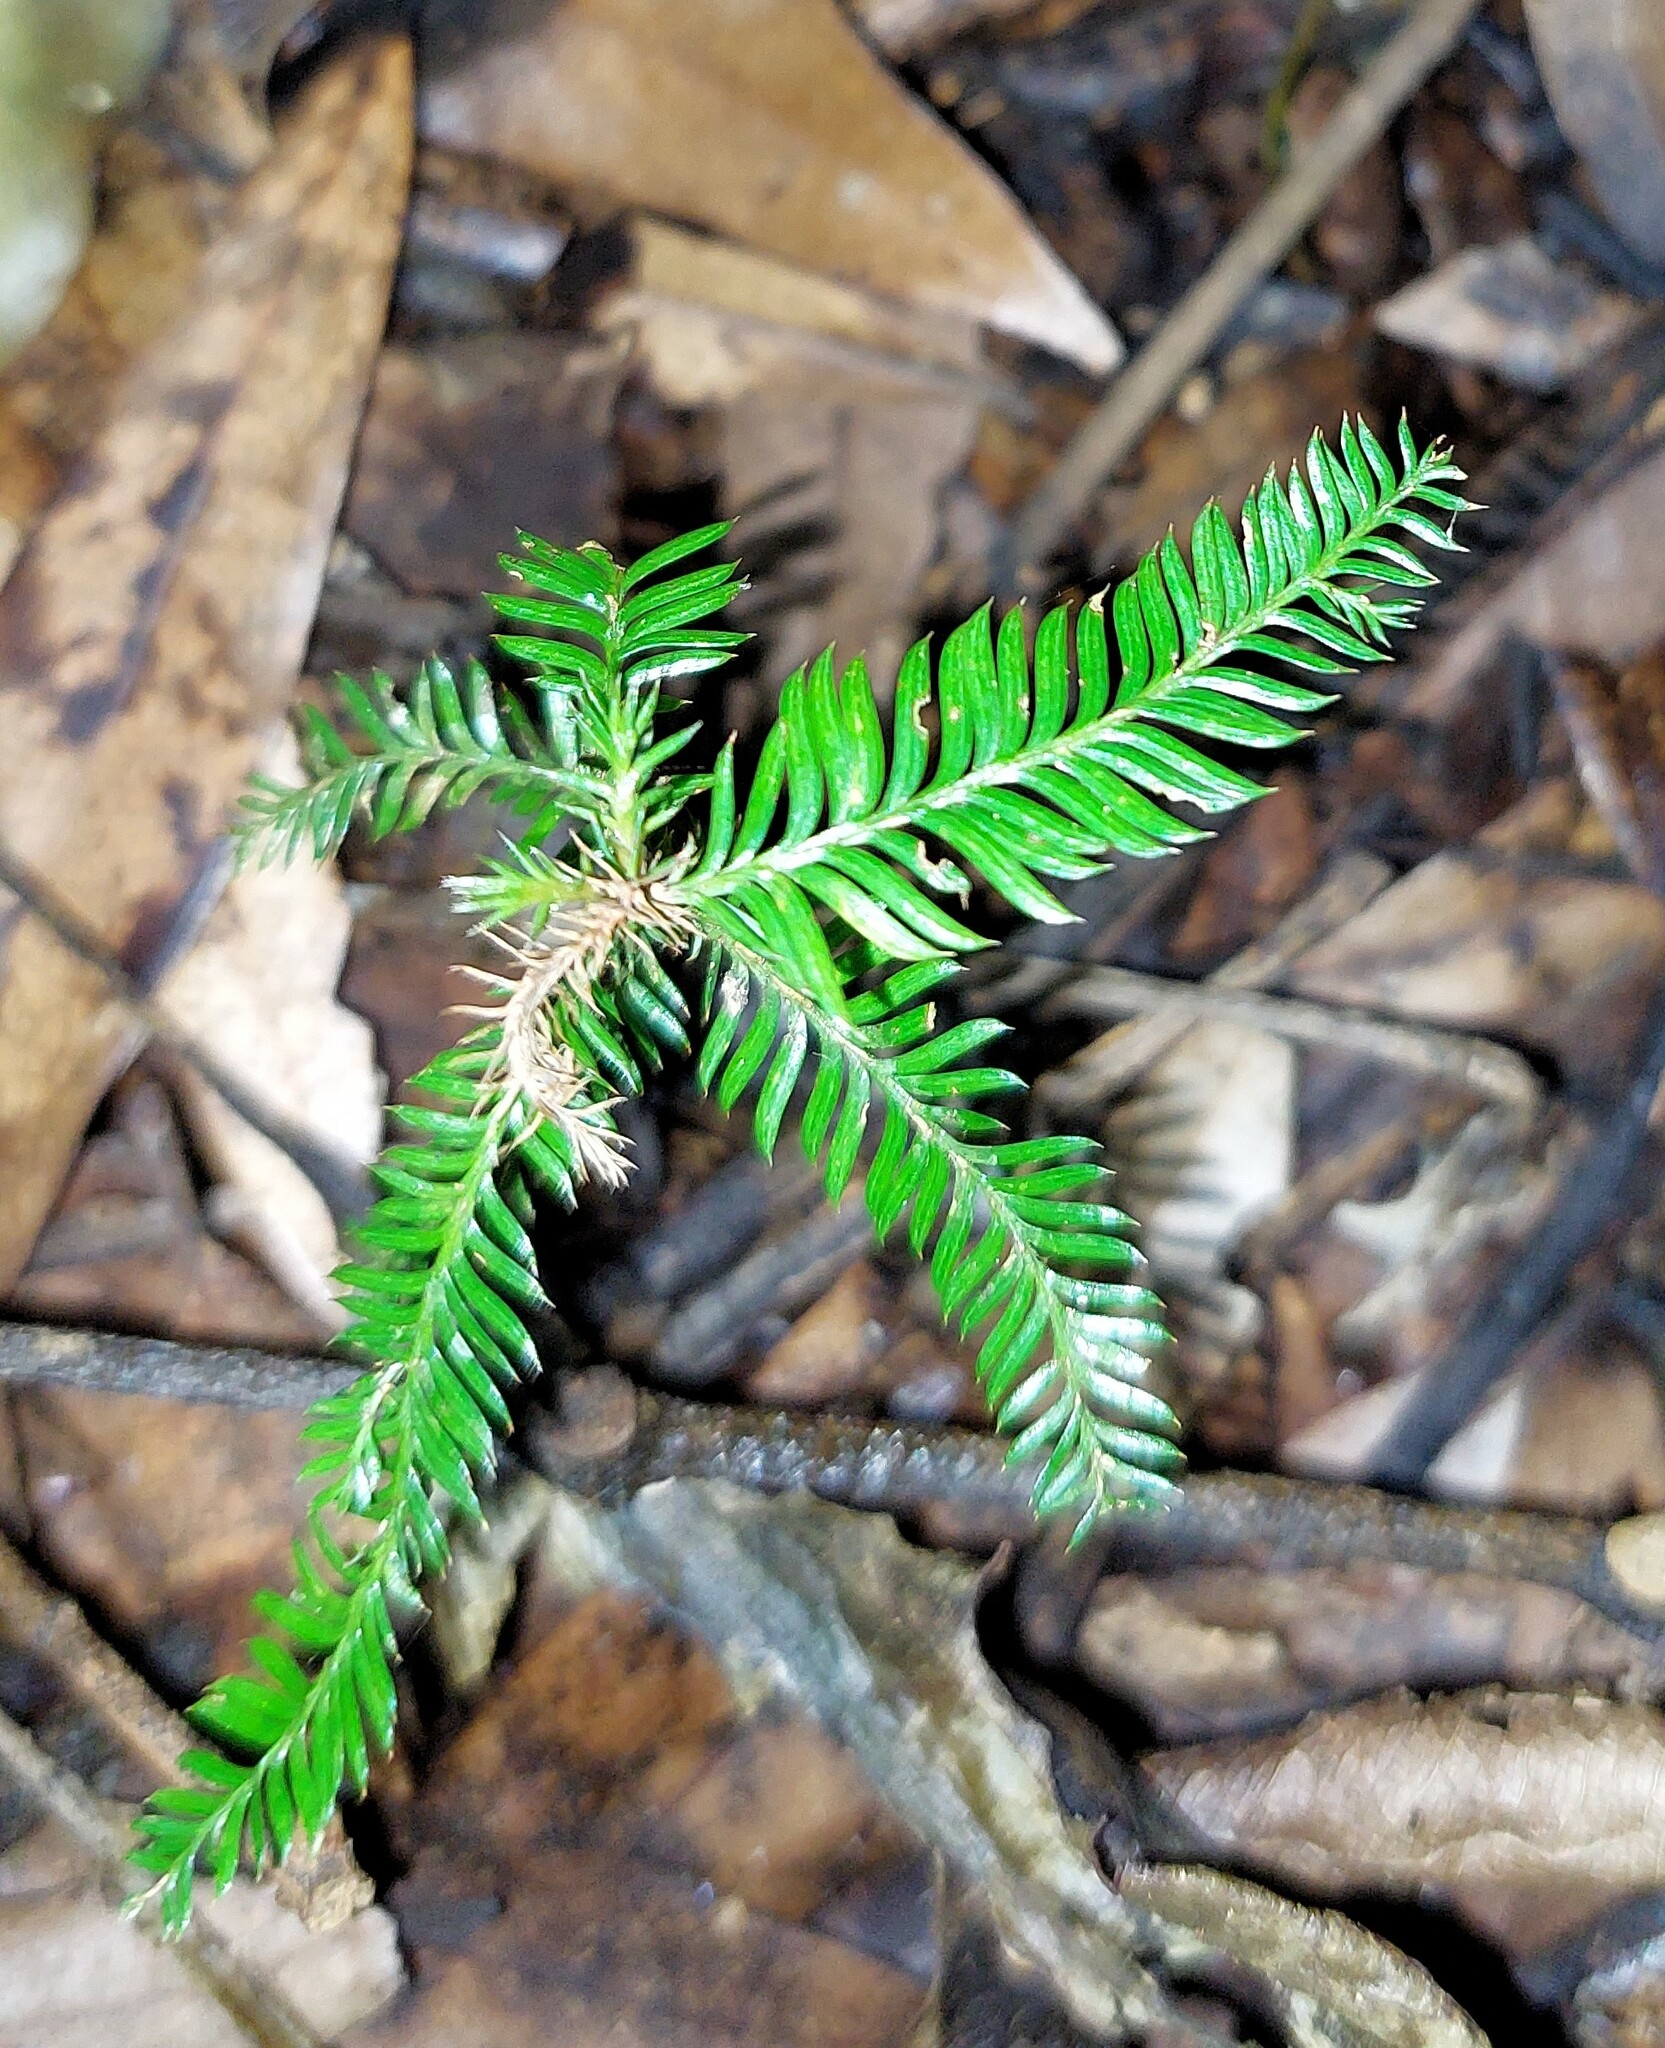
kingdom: Plantae
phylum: Tracheophyta
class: Pinopsida
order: Pinales
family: Podocarpaceae
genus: Dacrycarpus
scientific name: Dacrycarpus dacrydioides
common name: White pine
